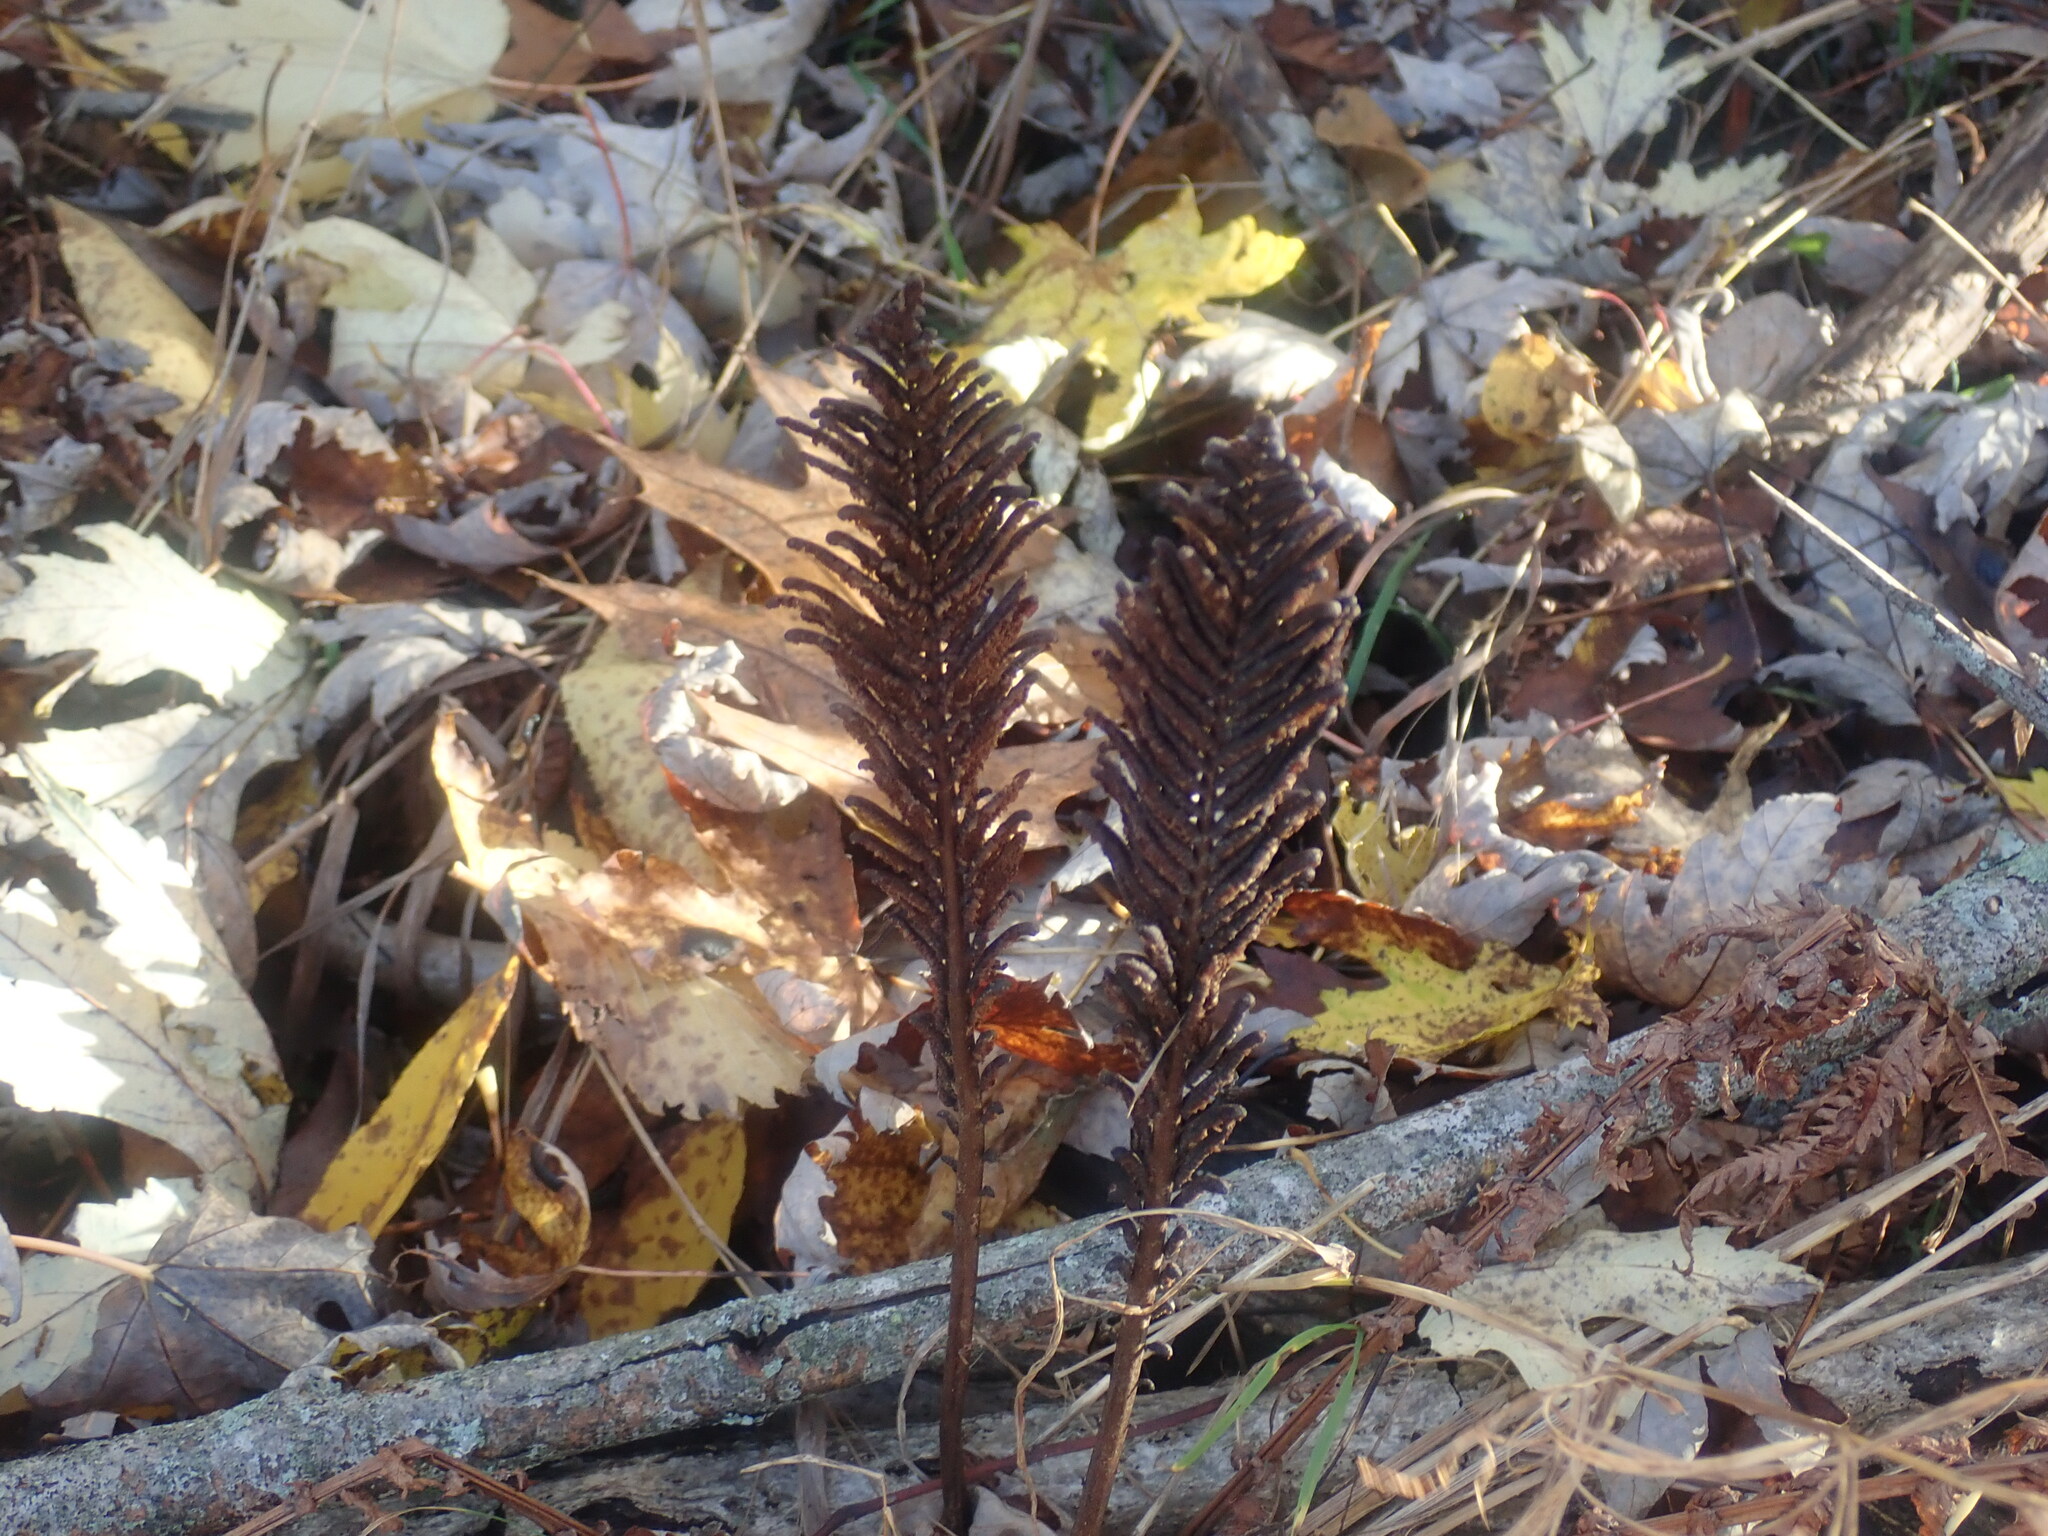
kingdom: Plantae
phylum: Tracheophyta
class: Polypodiopsida
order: Polypodiales
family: Onocleaceae
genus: Matteuccia
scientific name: Matteuccia struthiopteris
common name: Ostrich fern
